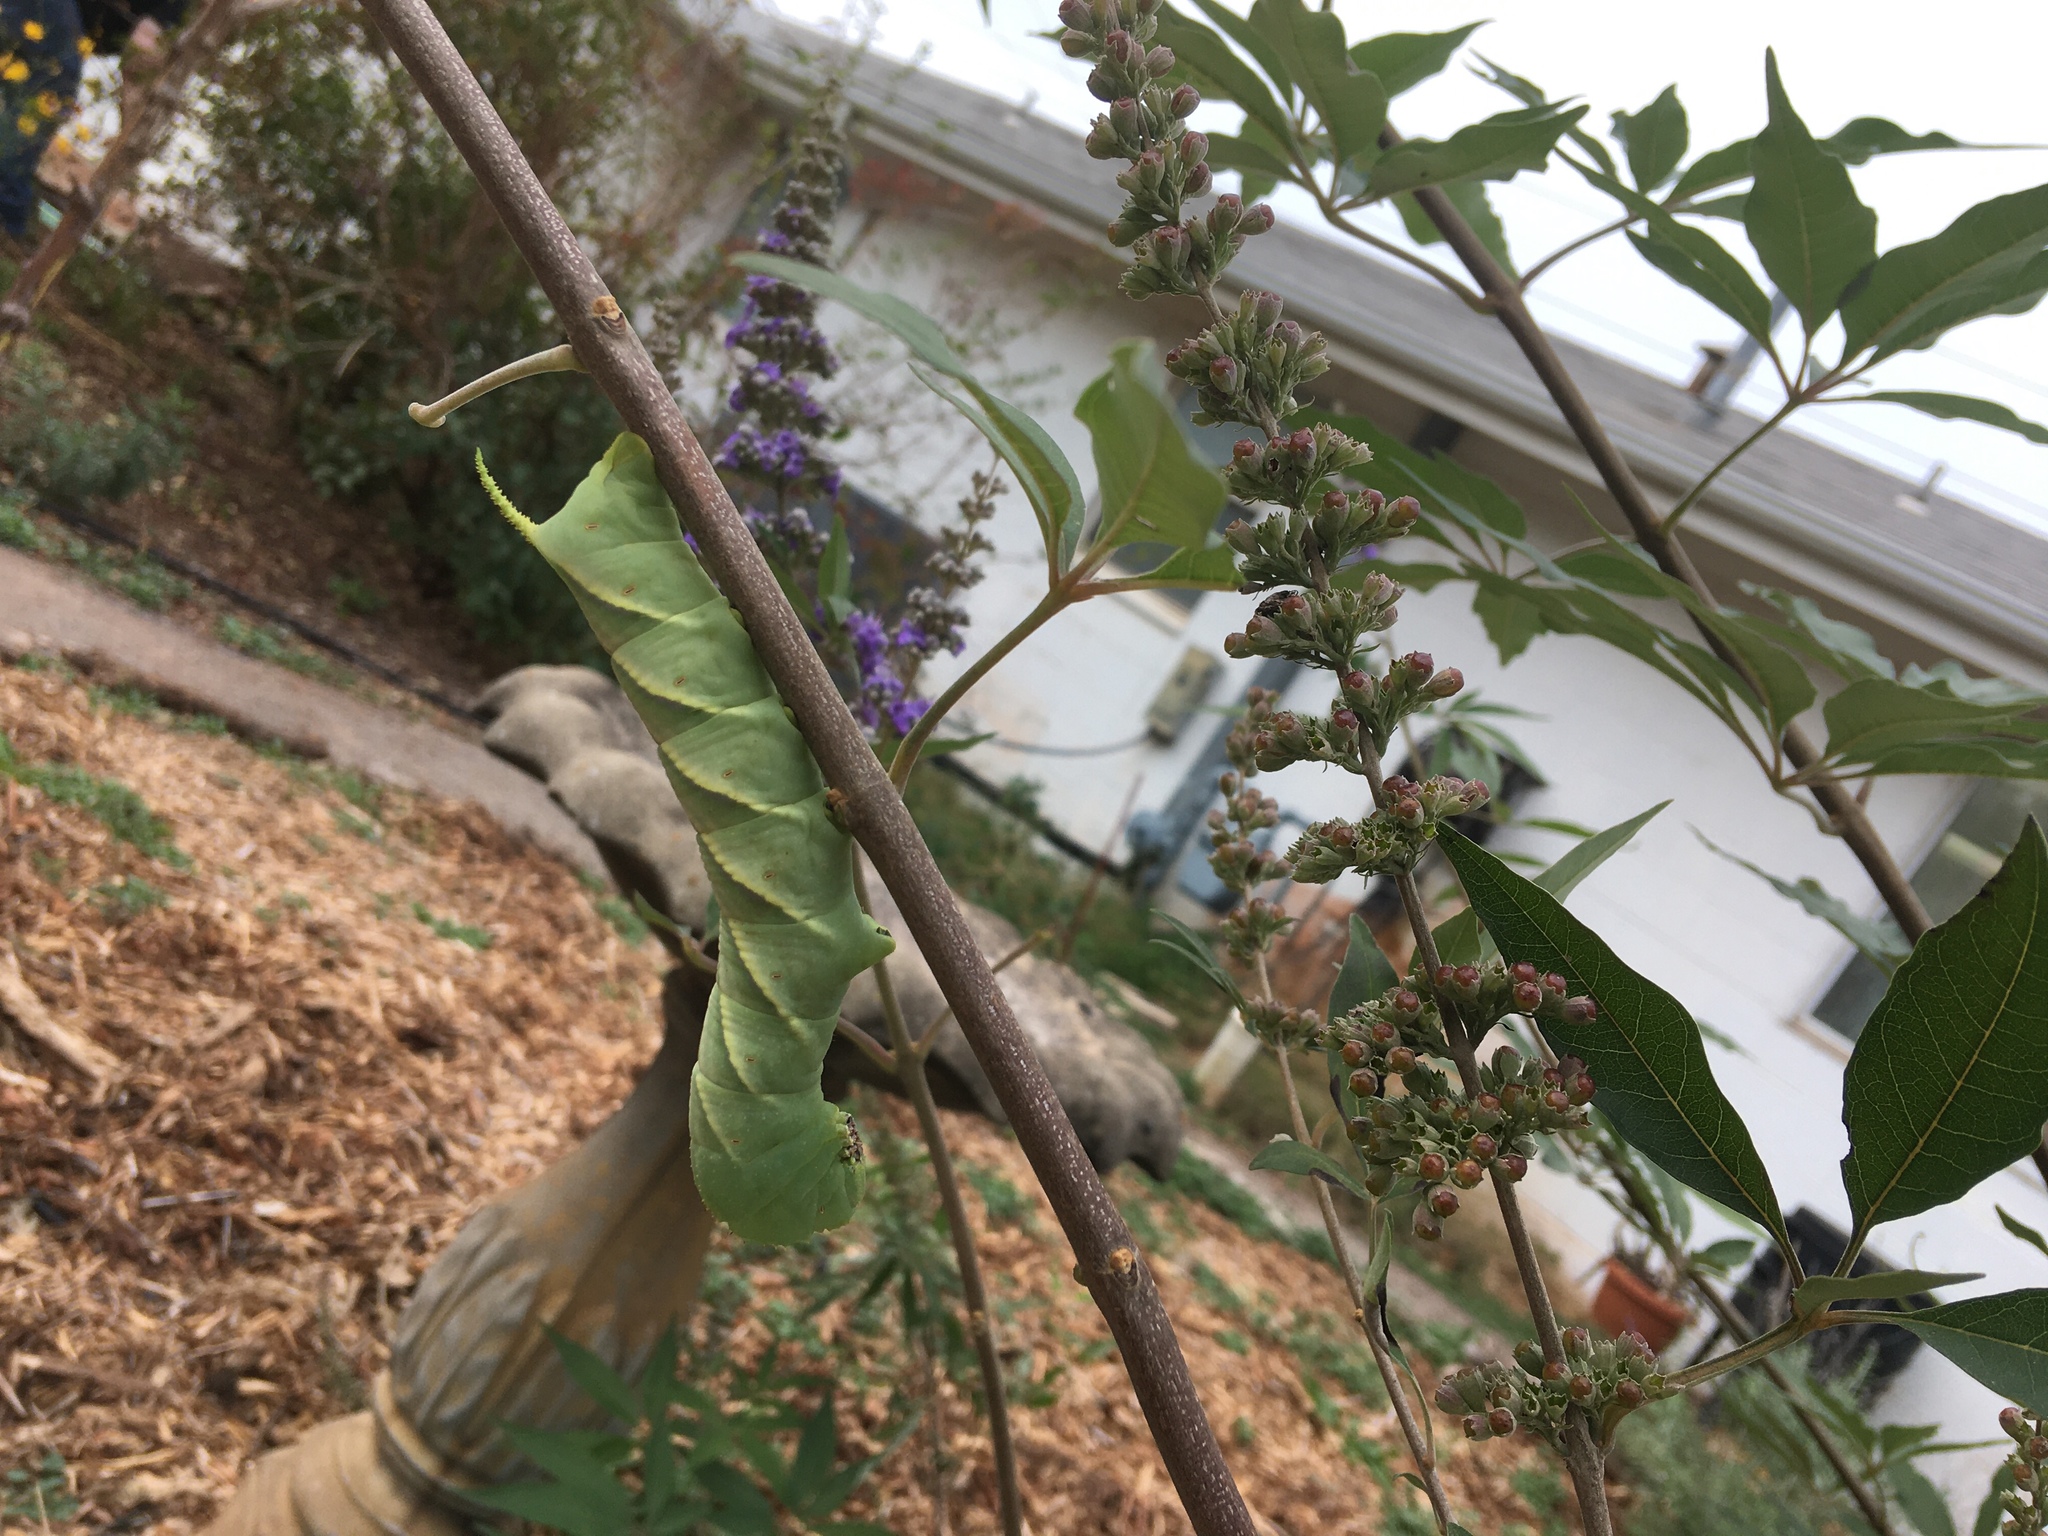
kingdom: Animalia
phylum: Arthropoda
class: Insecta
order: Lepidoptera
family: Sphingidae
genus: Manduca
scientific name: Manduca rustica
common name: Rustic sphinx
